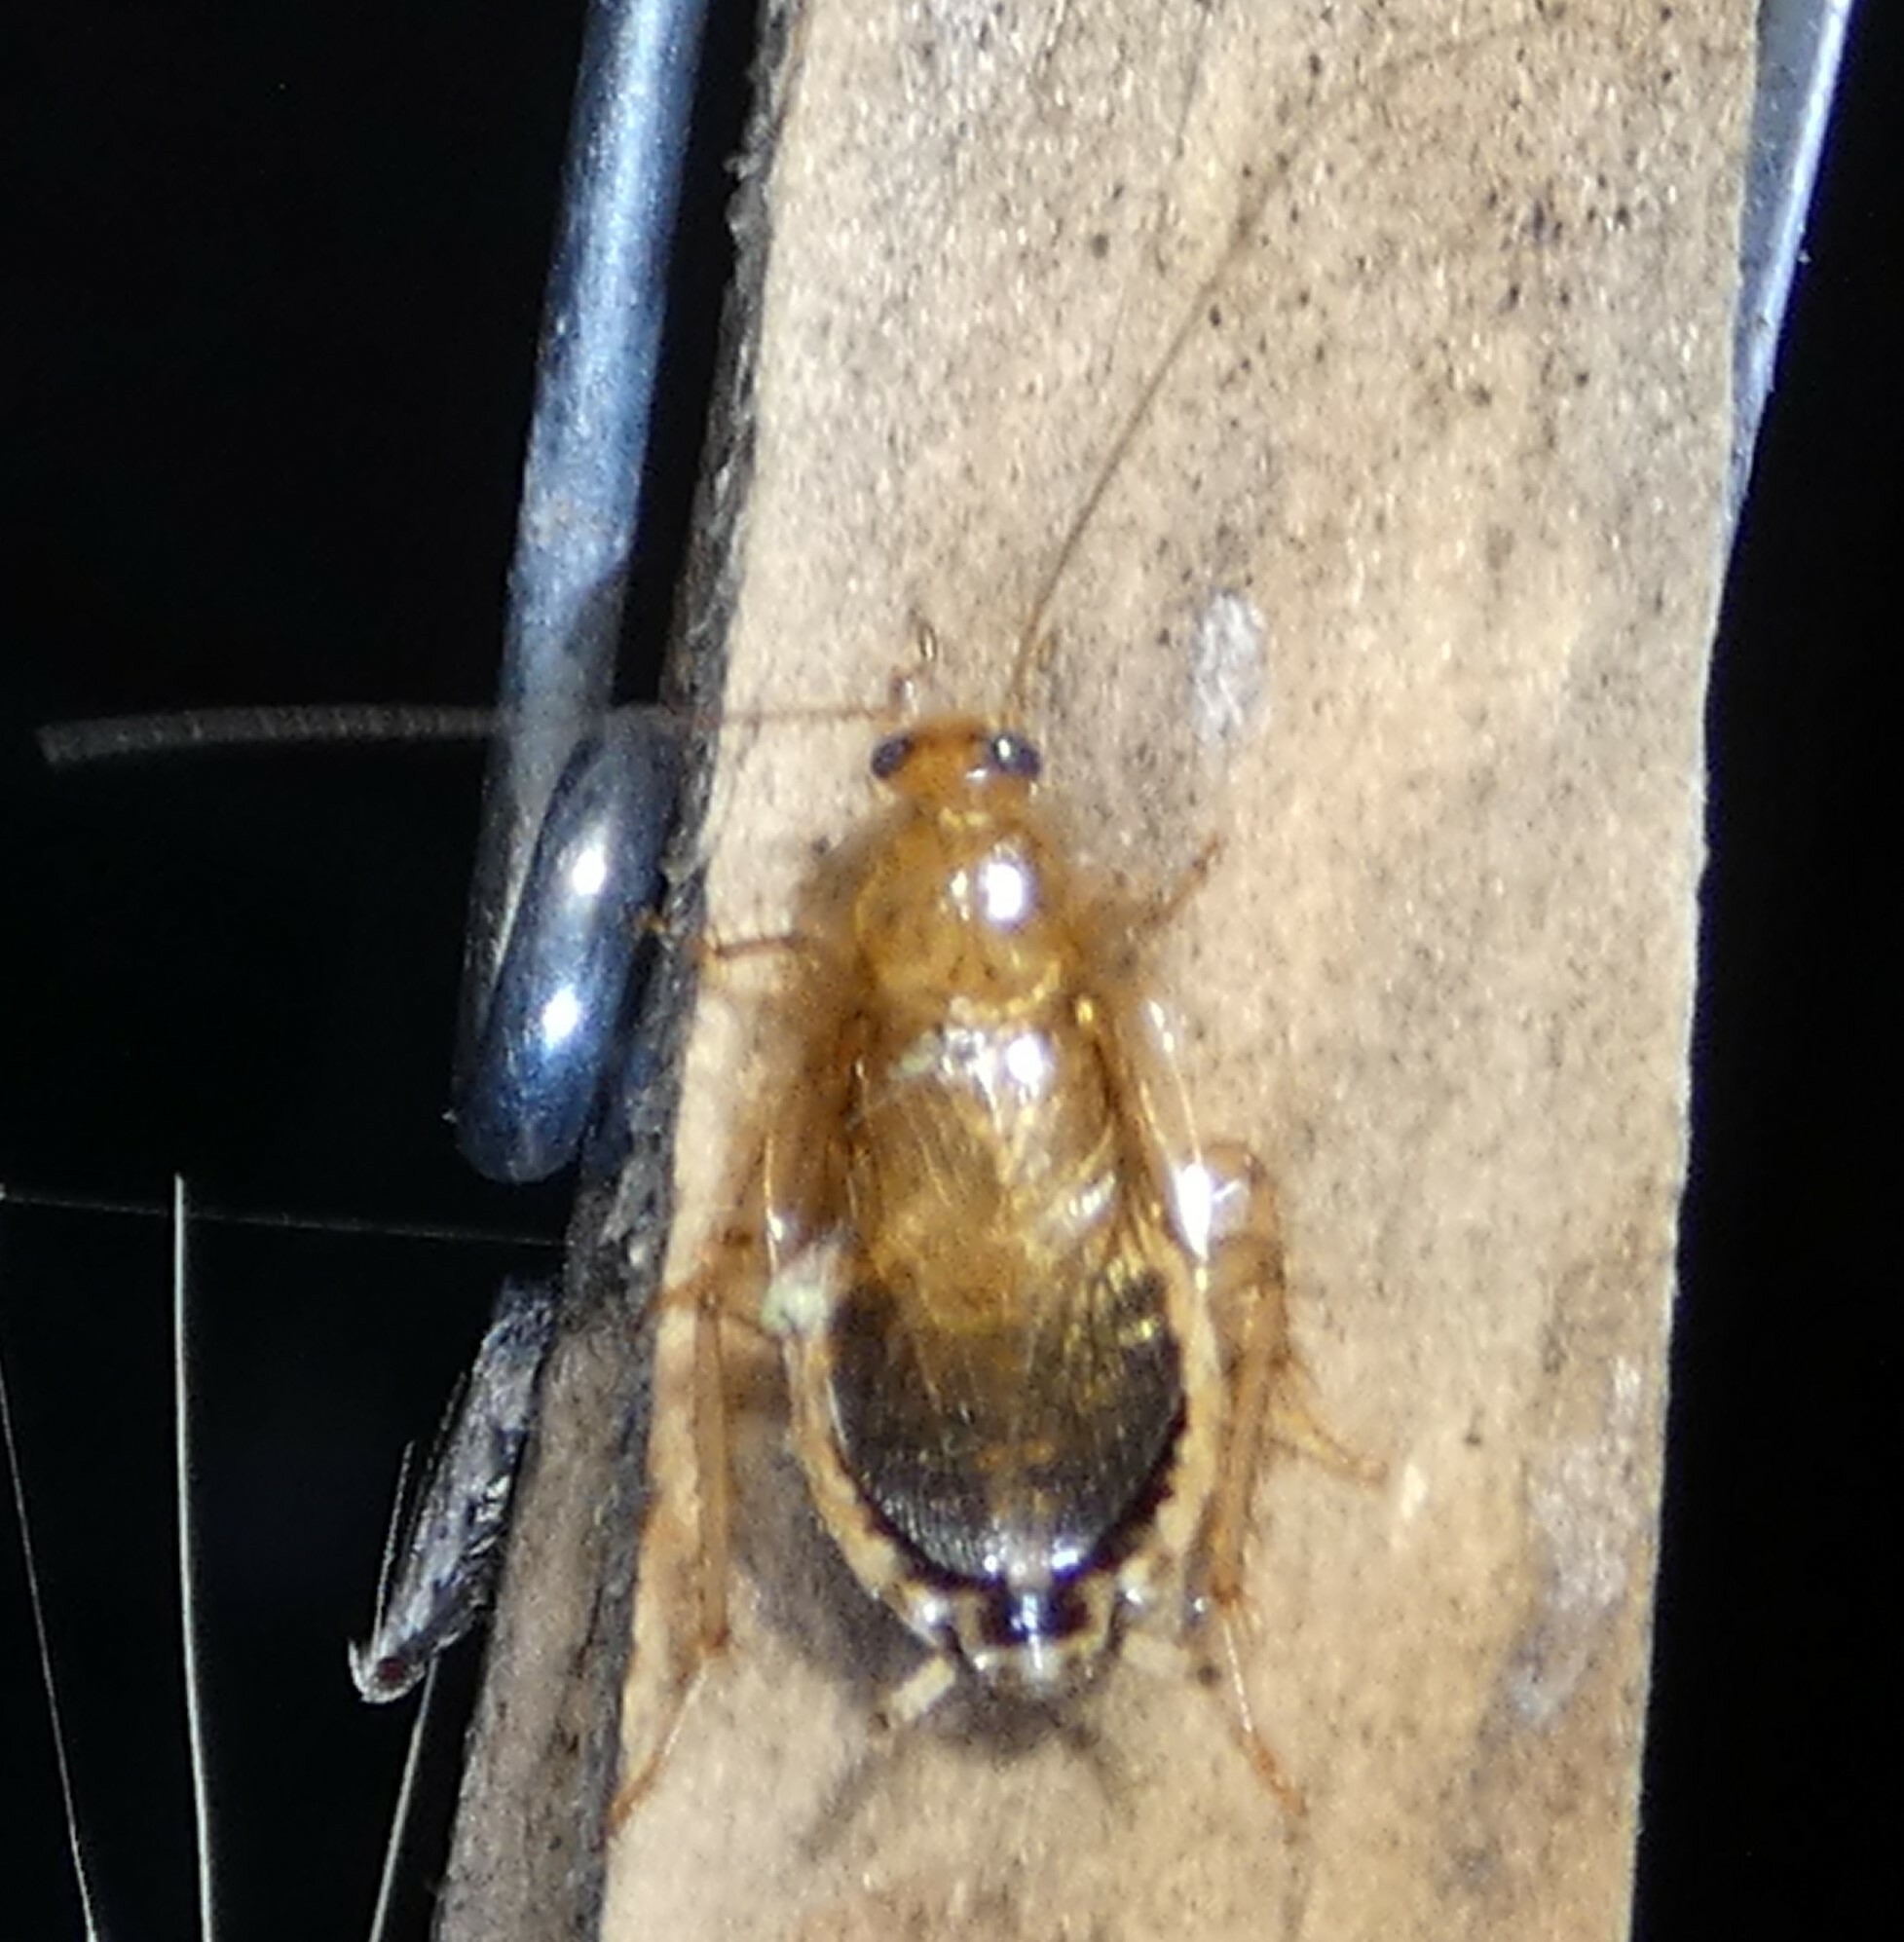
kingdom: Animalia
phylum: Arthropoda
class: Insecta
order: Blattodea
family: Ectobiidae
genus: Cariblatta
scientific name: Cariblatta lutea
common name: Small yellow cockroach
